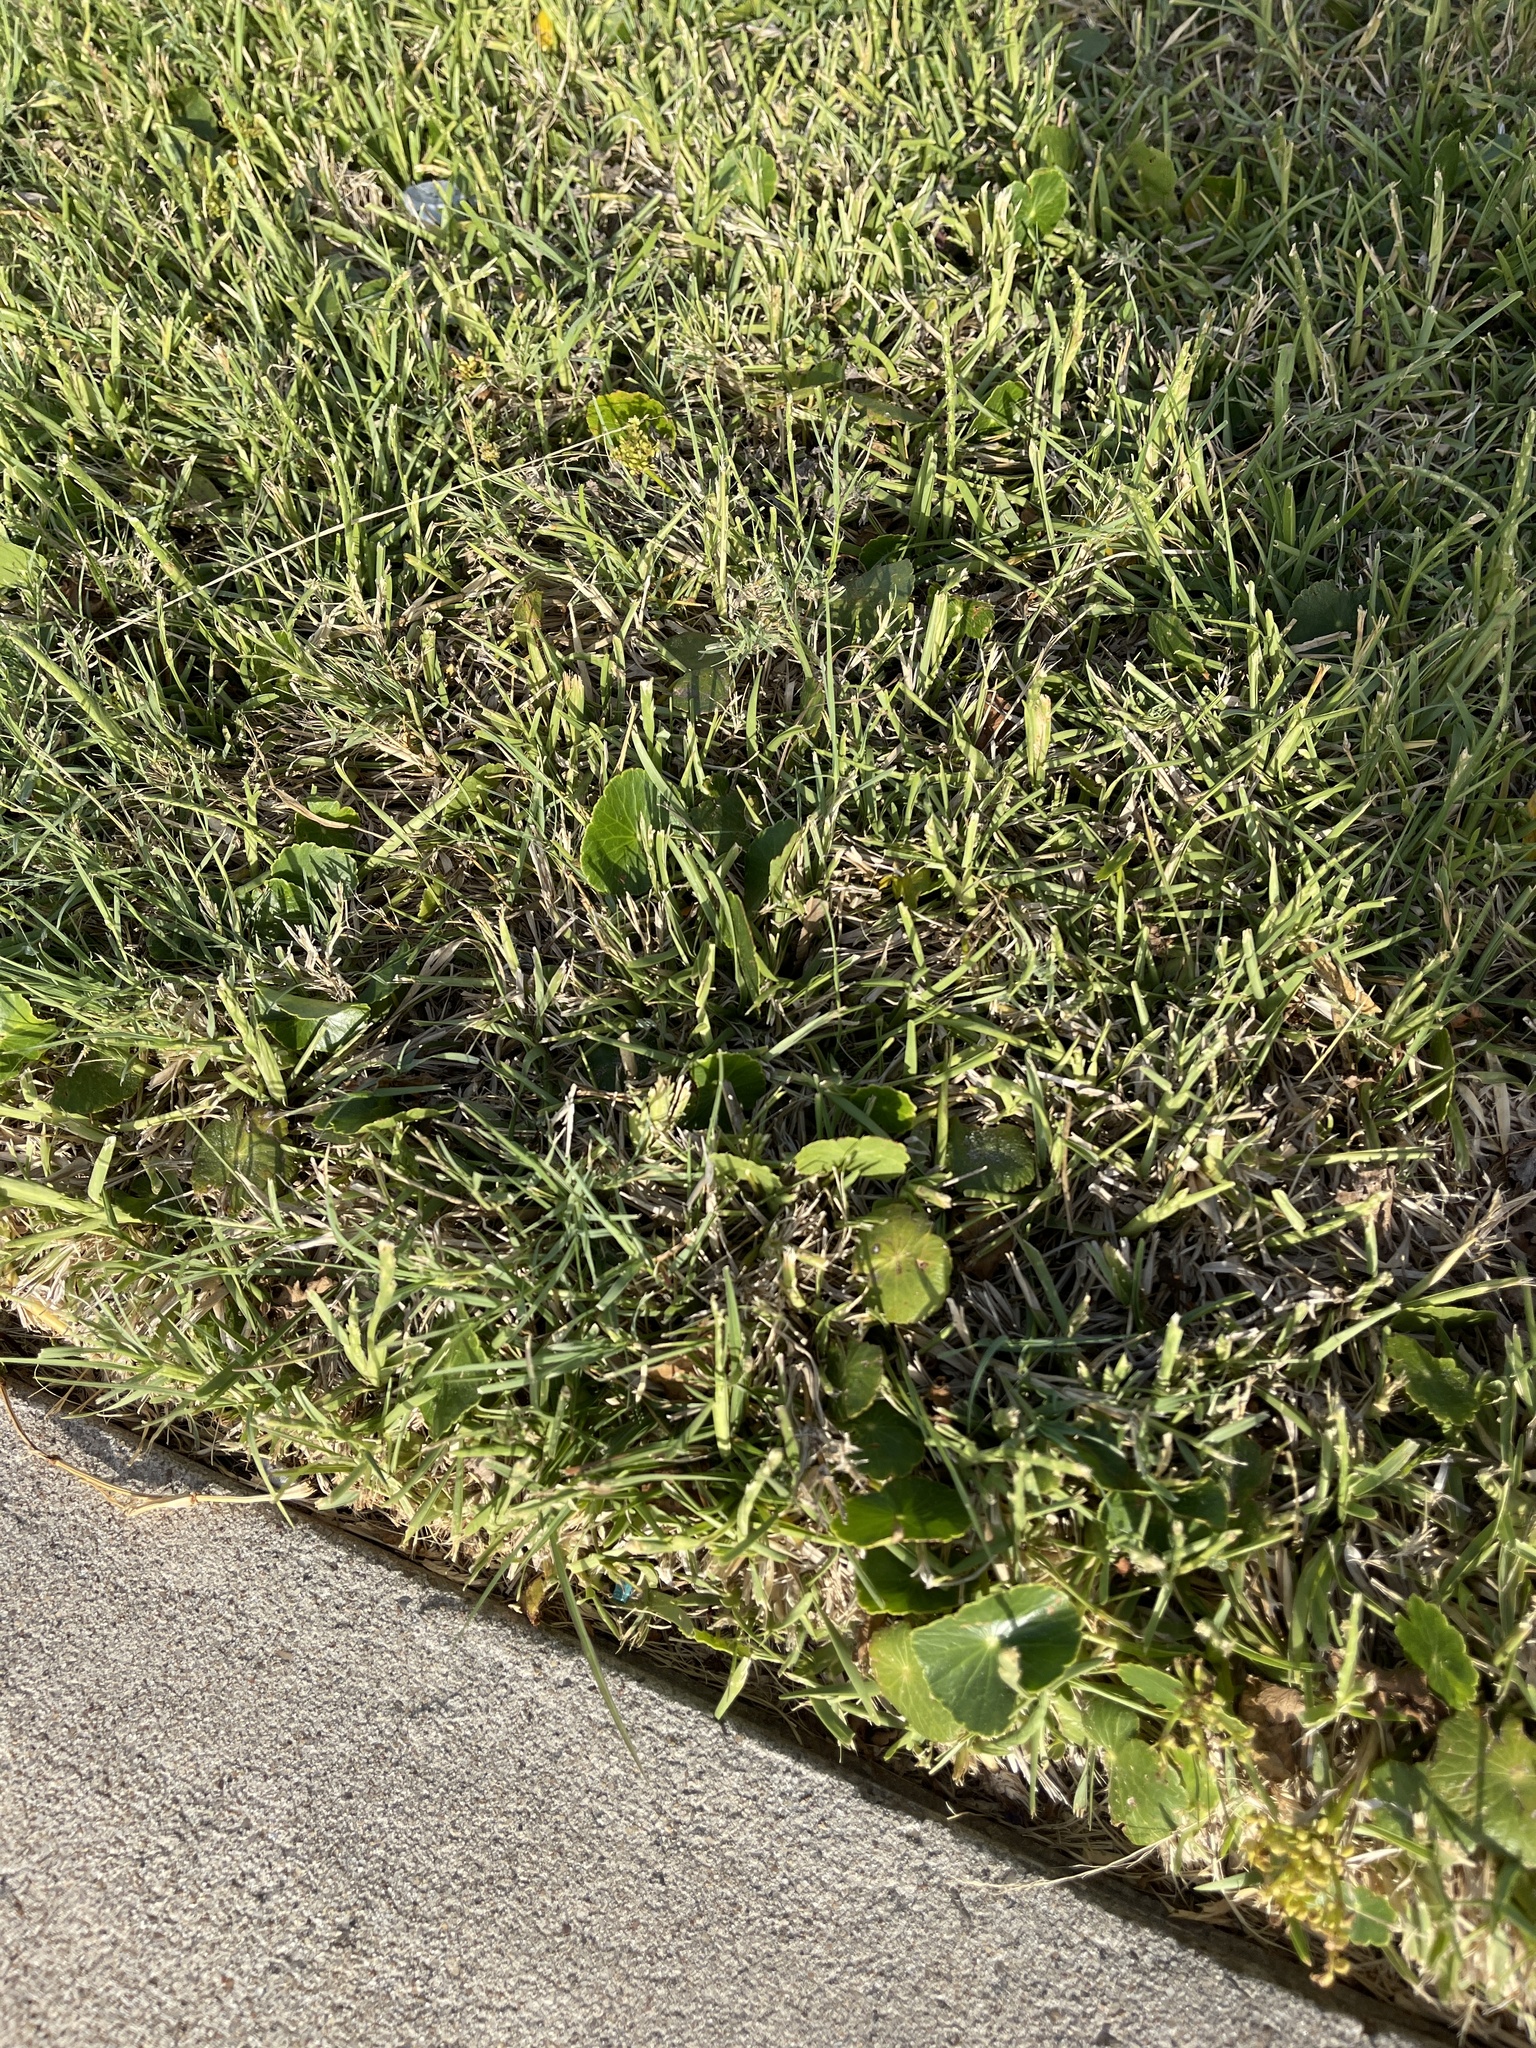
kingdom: Plantae
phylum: Tracheophyta
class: Magnoliopsida
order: Apiales
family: Araliaceae
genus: Hydrocotyle
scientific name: Hydrocotyle bonariensis
